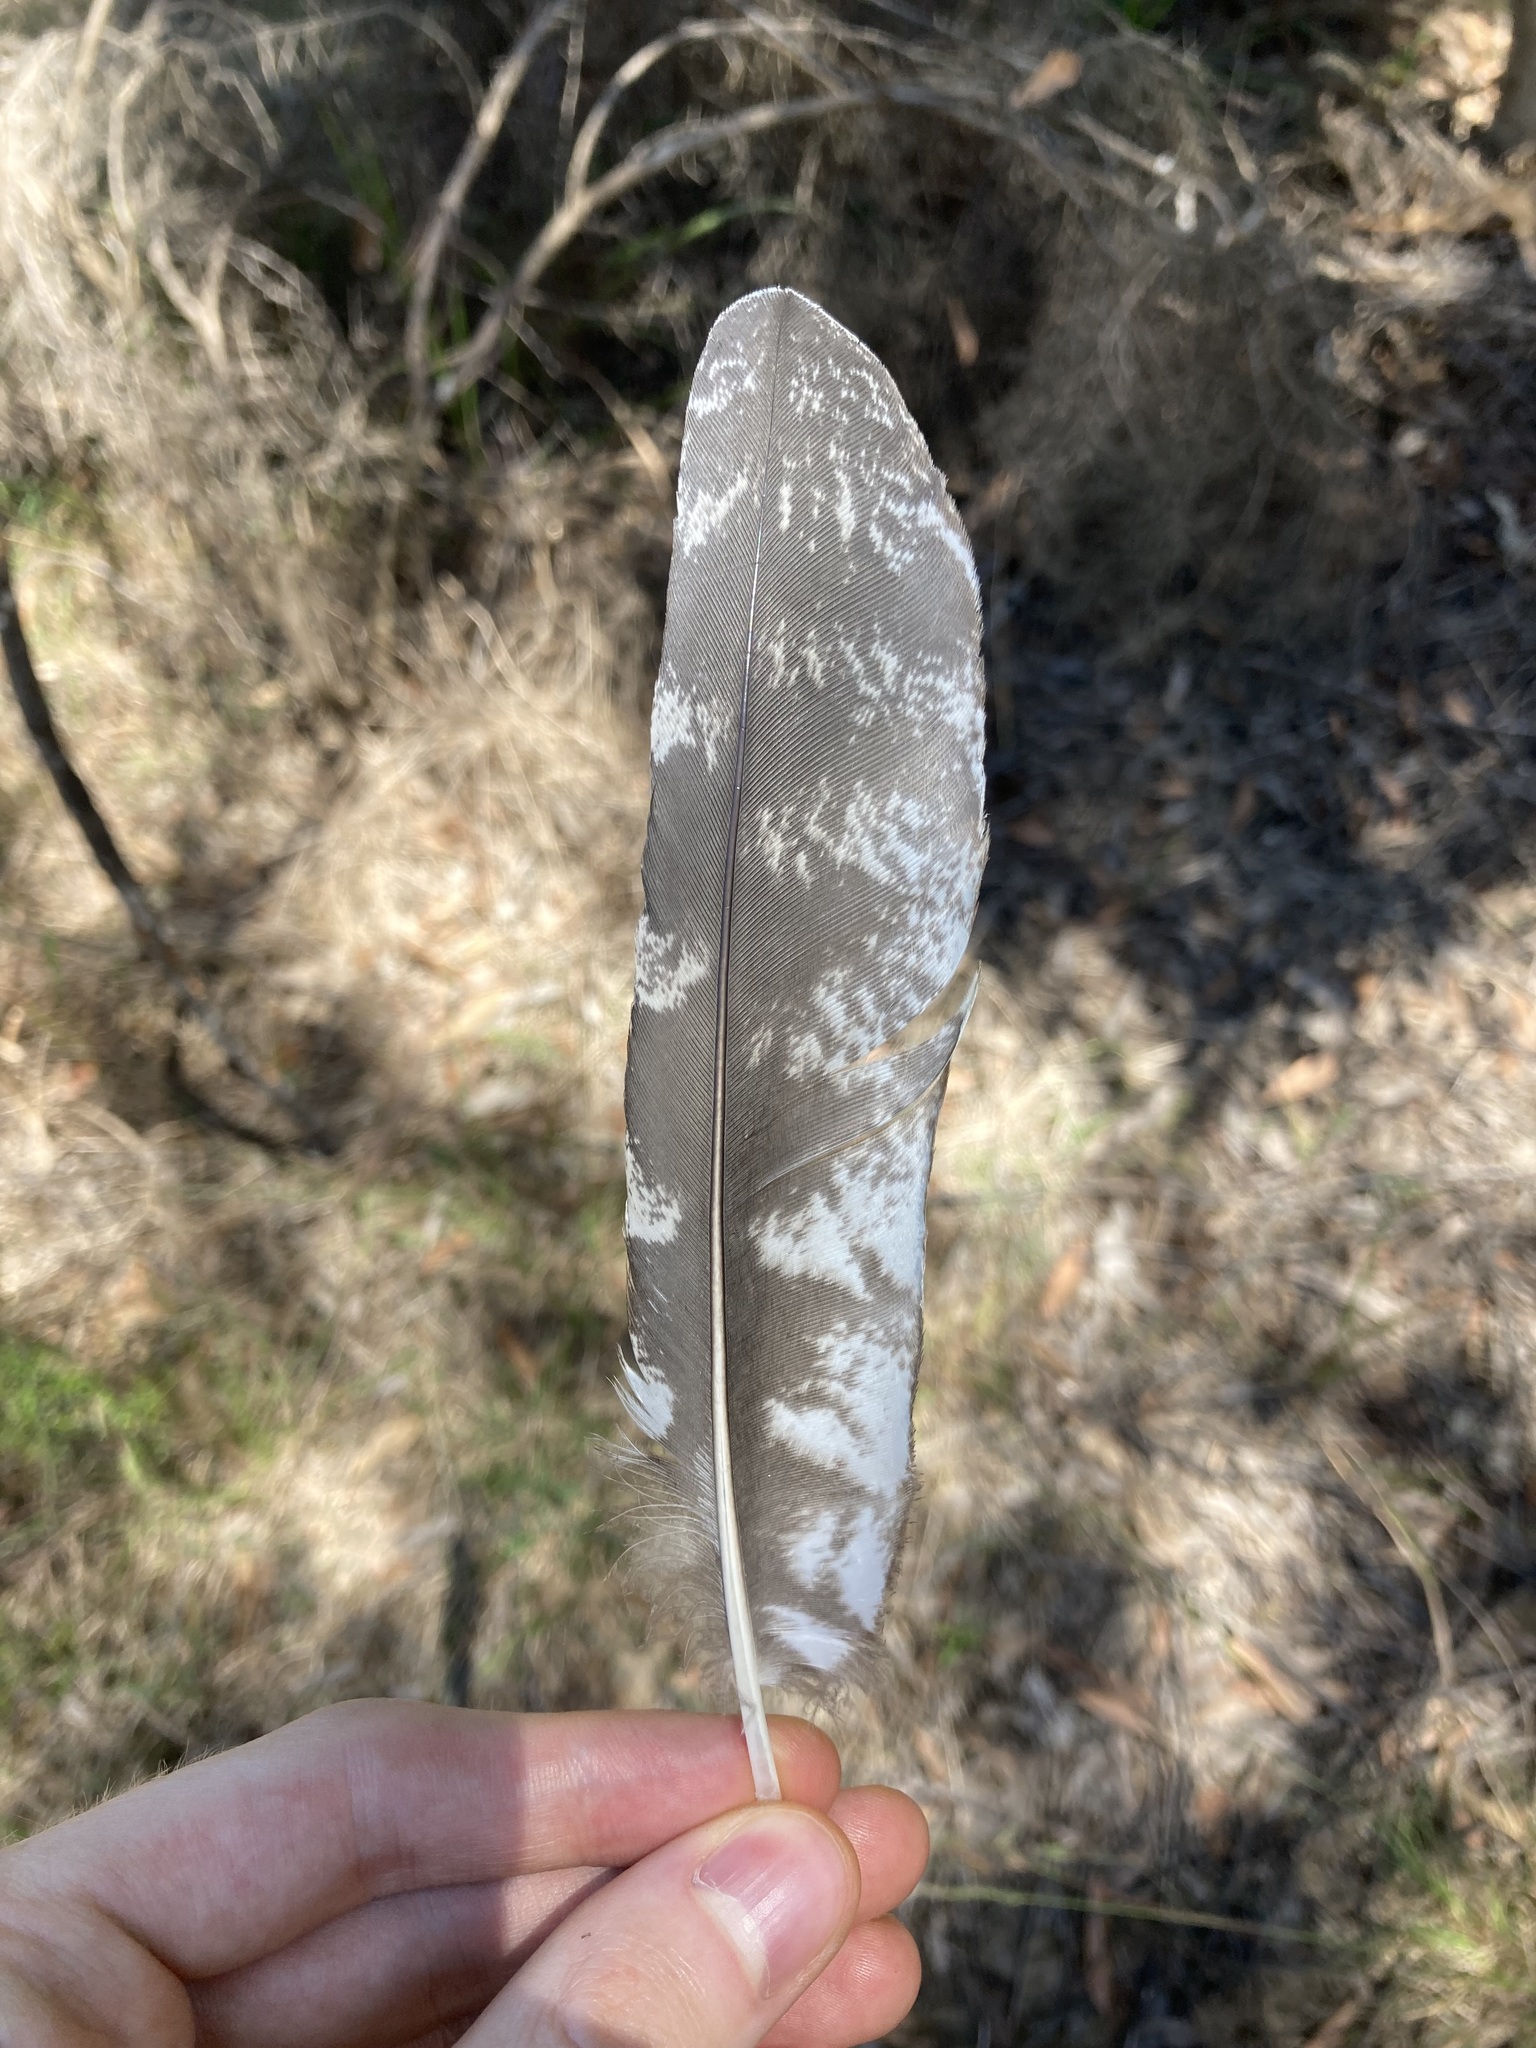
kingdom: Animalia
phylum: Chordata
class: Aves
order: Caprimulgiformes
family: Podargidae
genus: Podargus
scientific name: Podargus strigoides
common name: Tawny frogmouth
